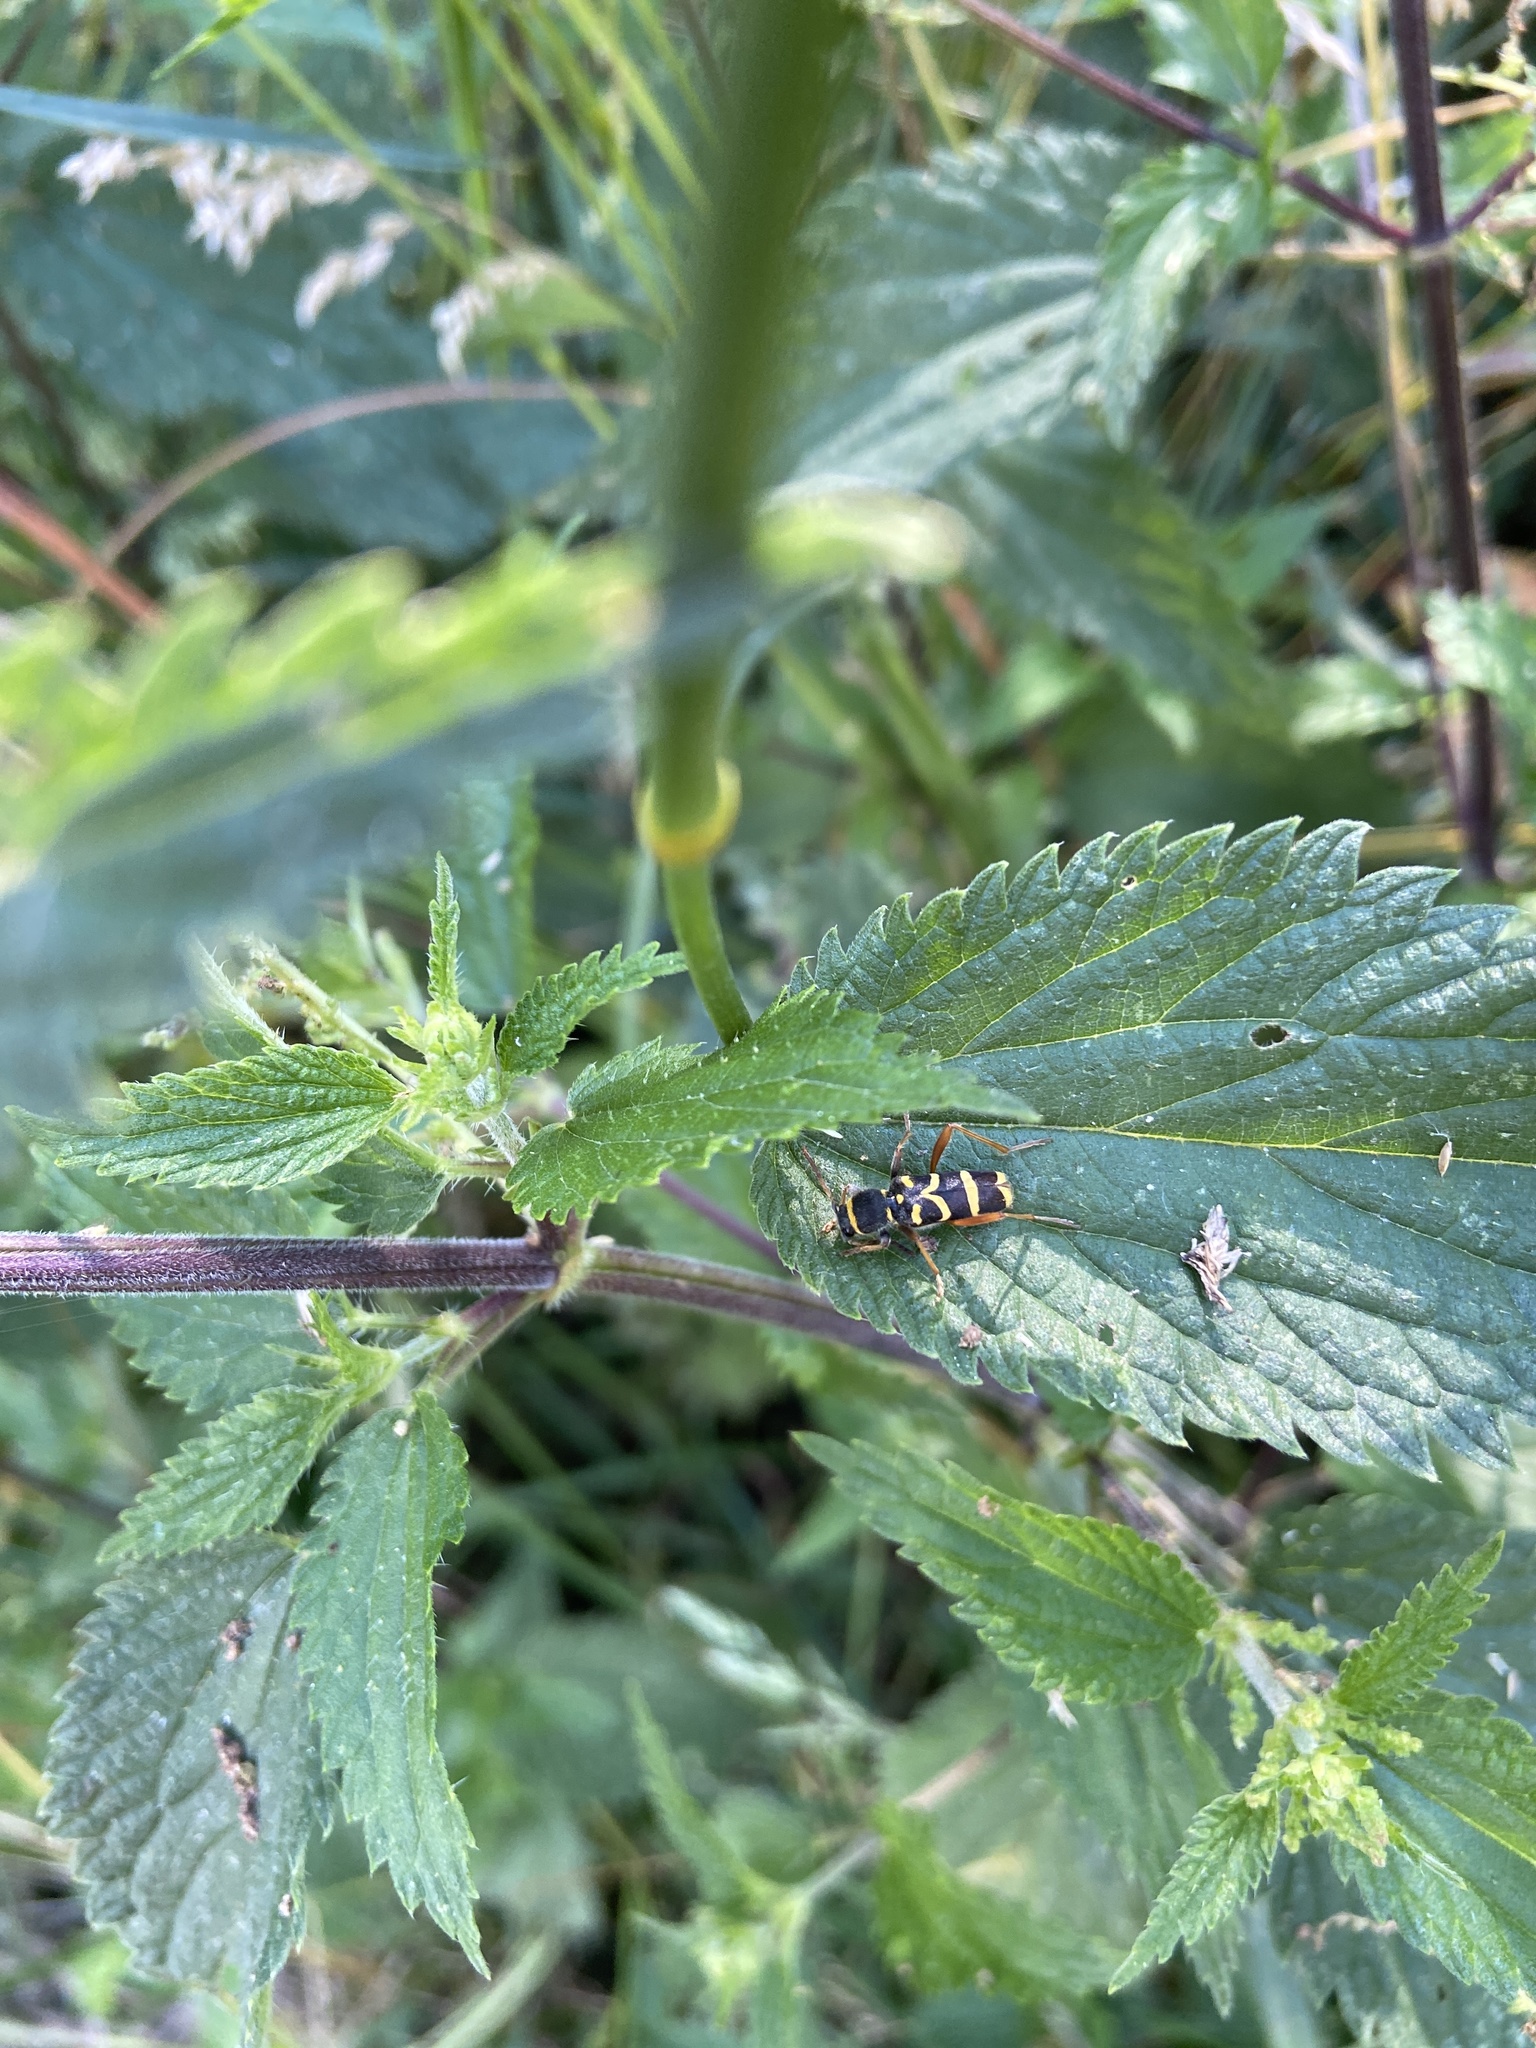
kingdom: Animalia
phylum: Arthropoda
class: Insecta
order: Coleoptera
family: Cerambycidae
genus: Clytus
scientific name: Clytus arietis
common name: Wasp beetle
